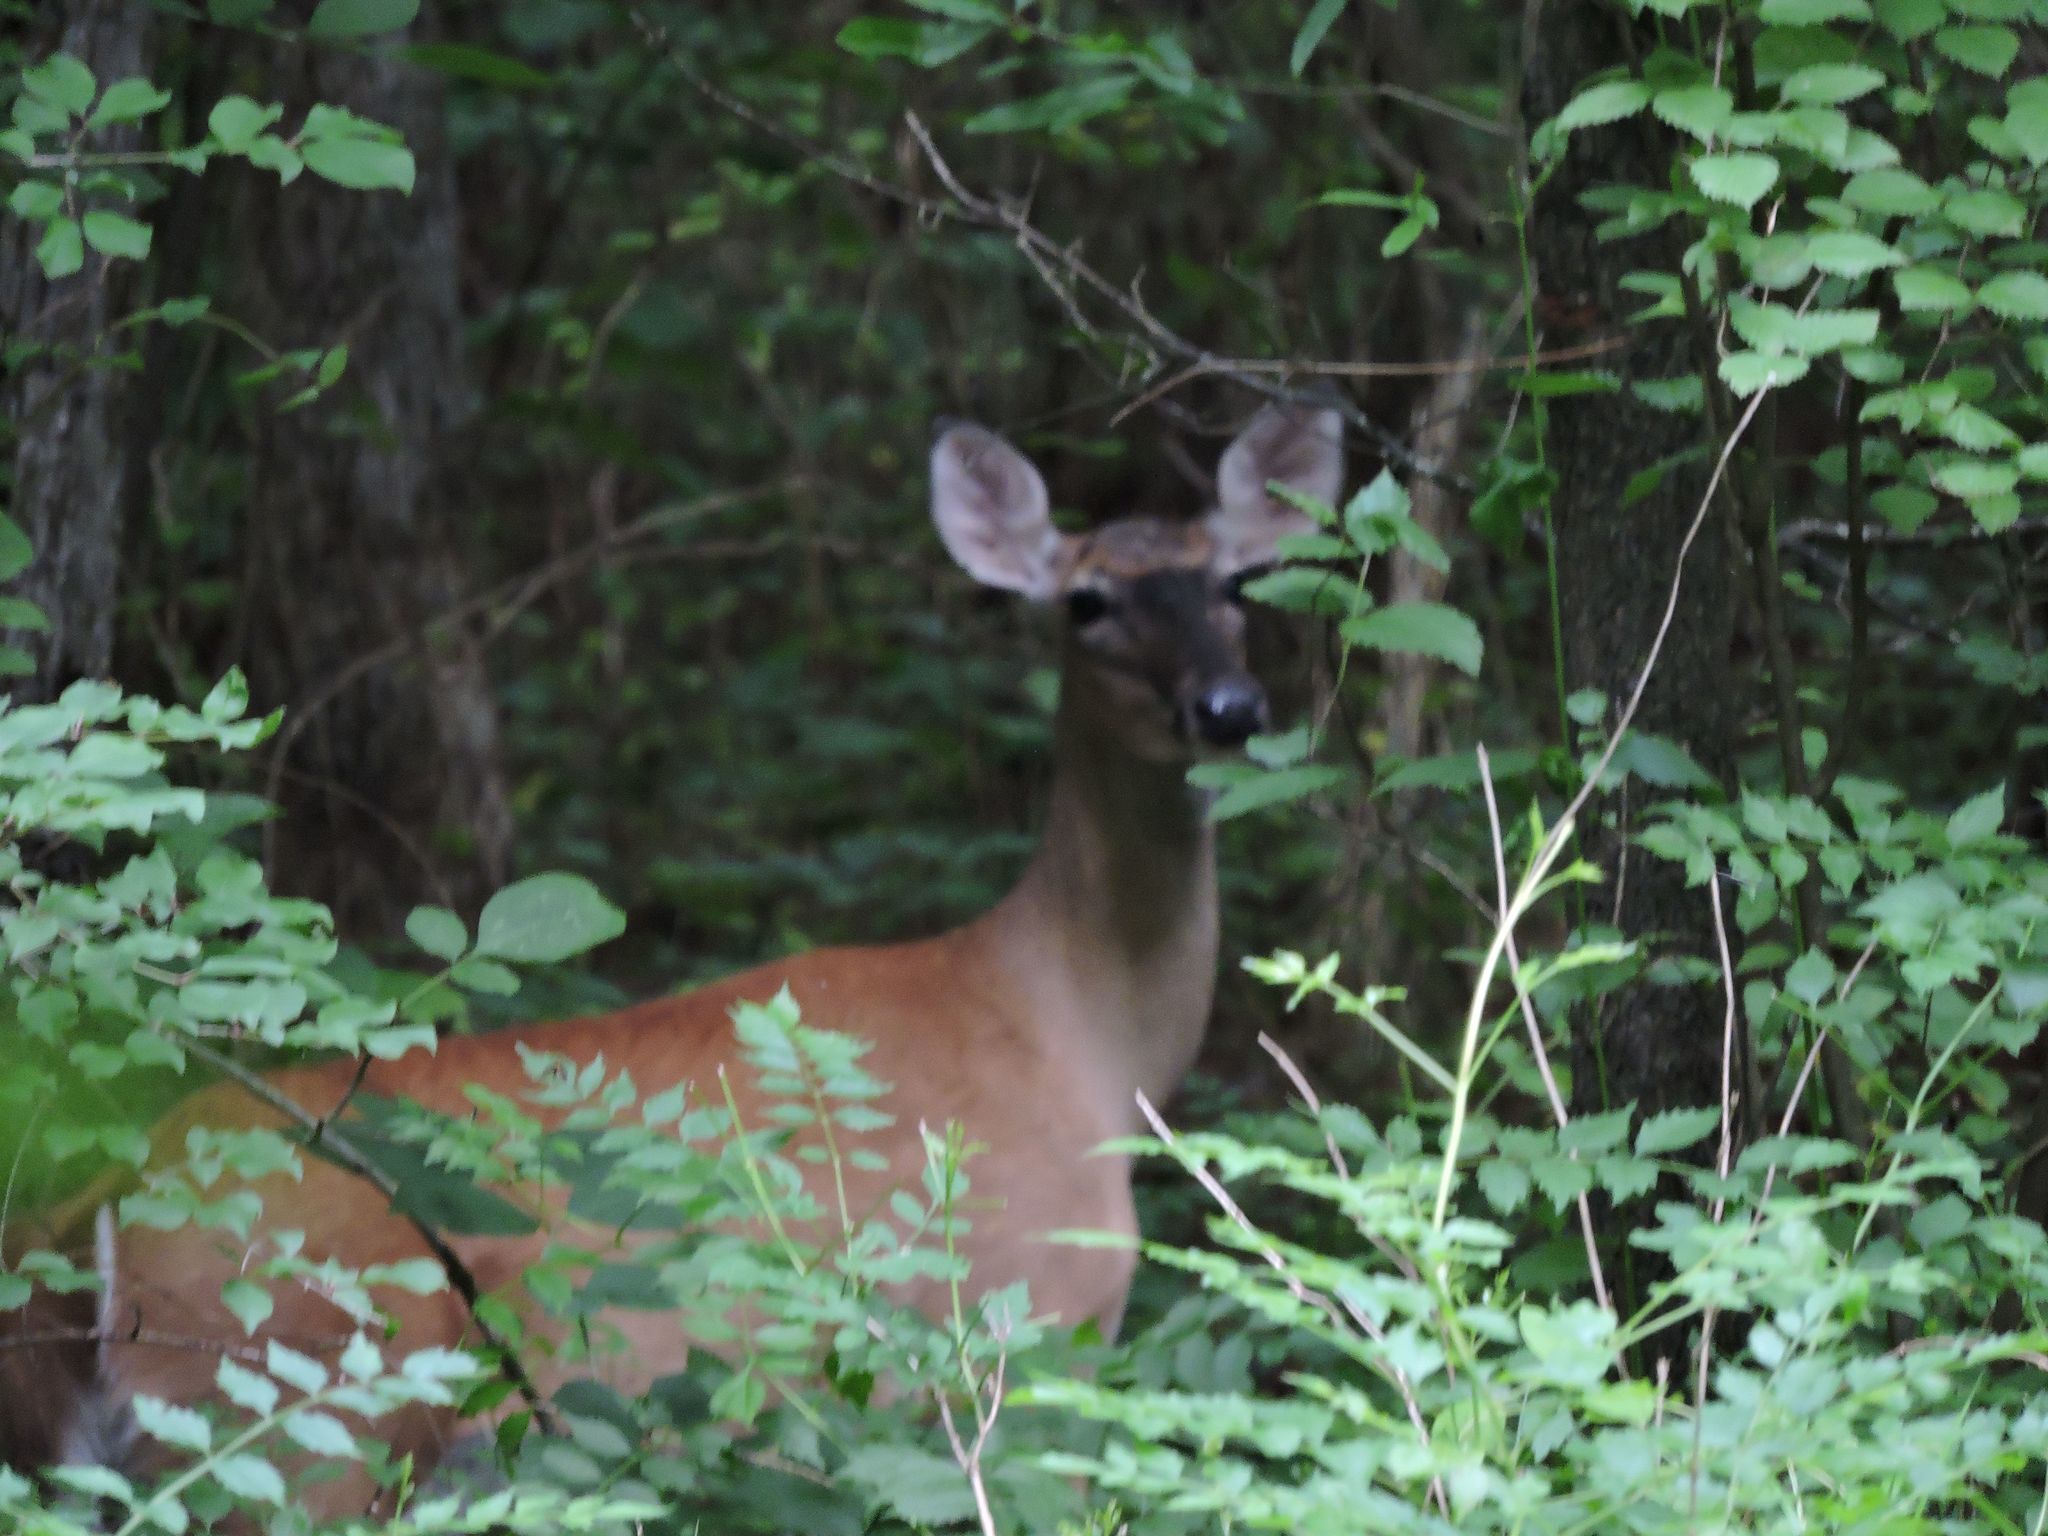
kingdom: Animalia
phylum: Chordata
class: Mammalia
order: Artiodactyla
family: Cervidae
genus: Odocoileus
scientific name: Odocoileus virginianus
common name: White-tailed deer
